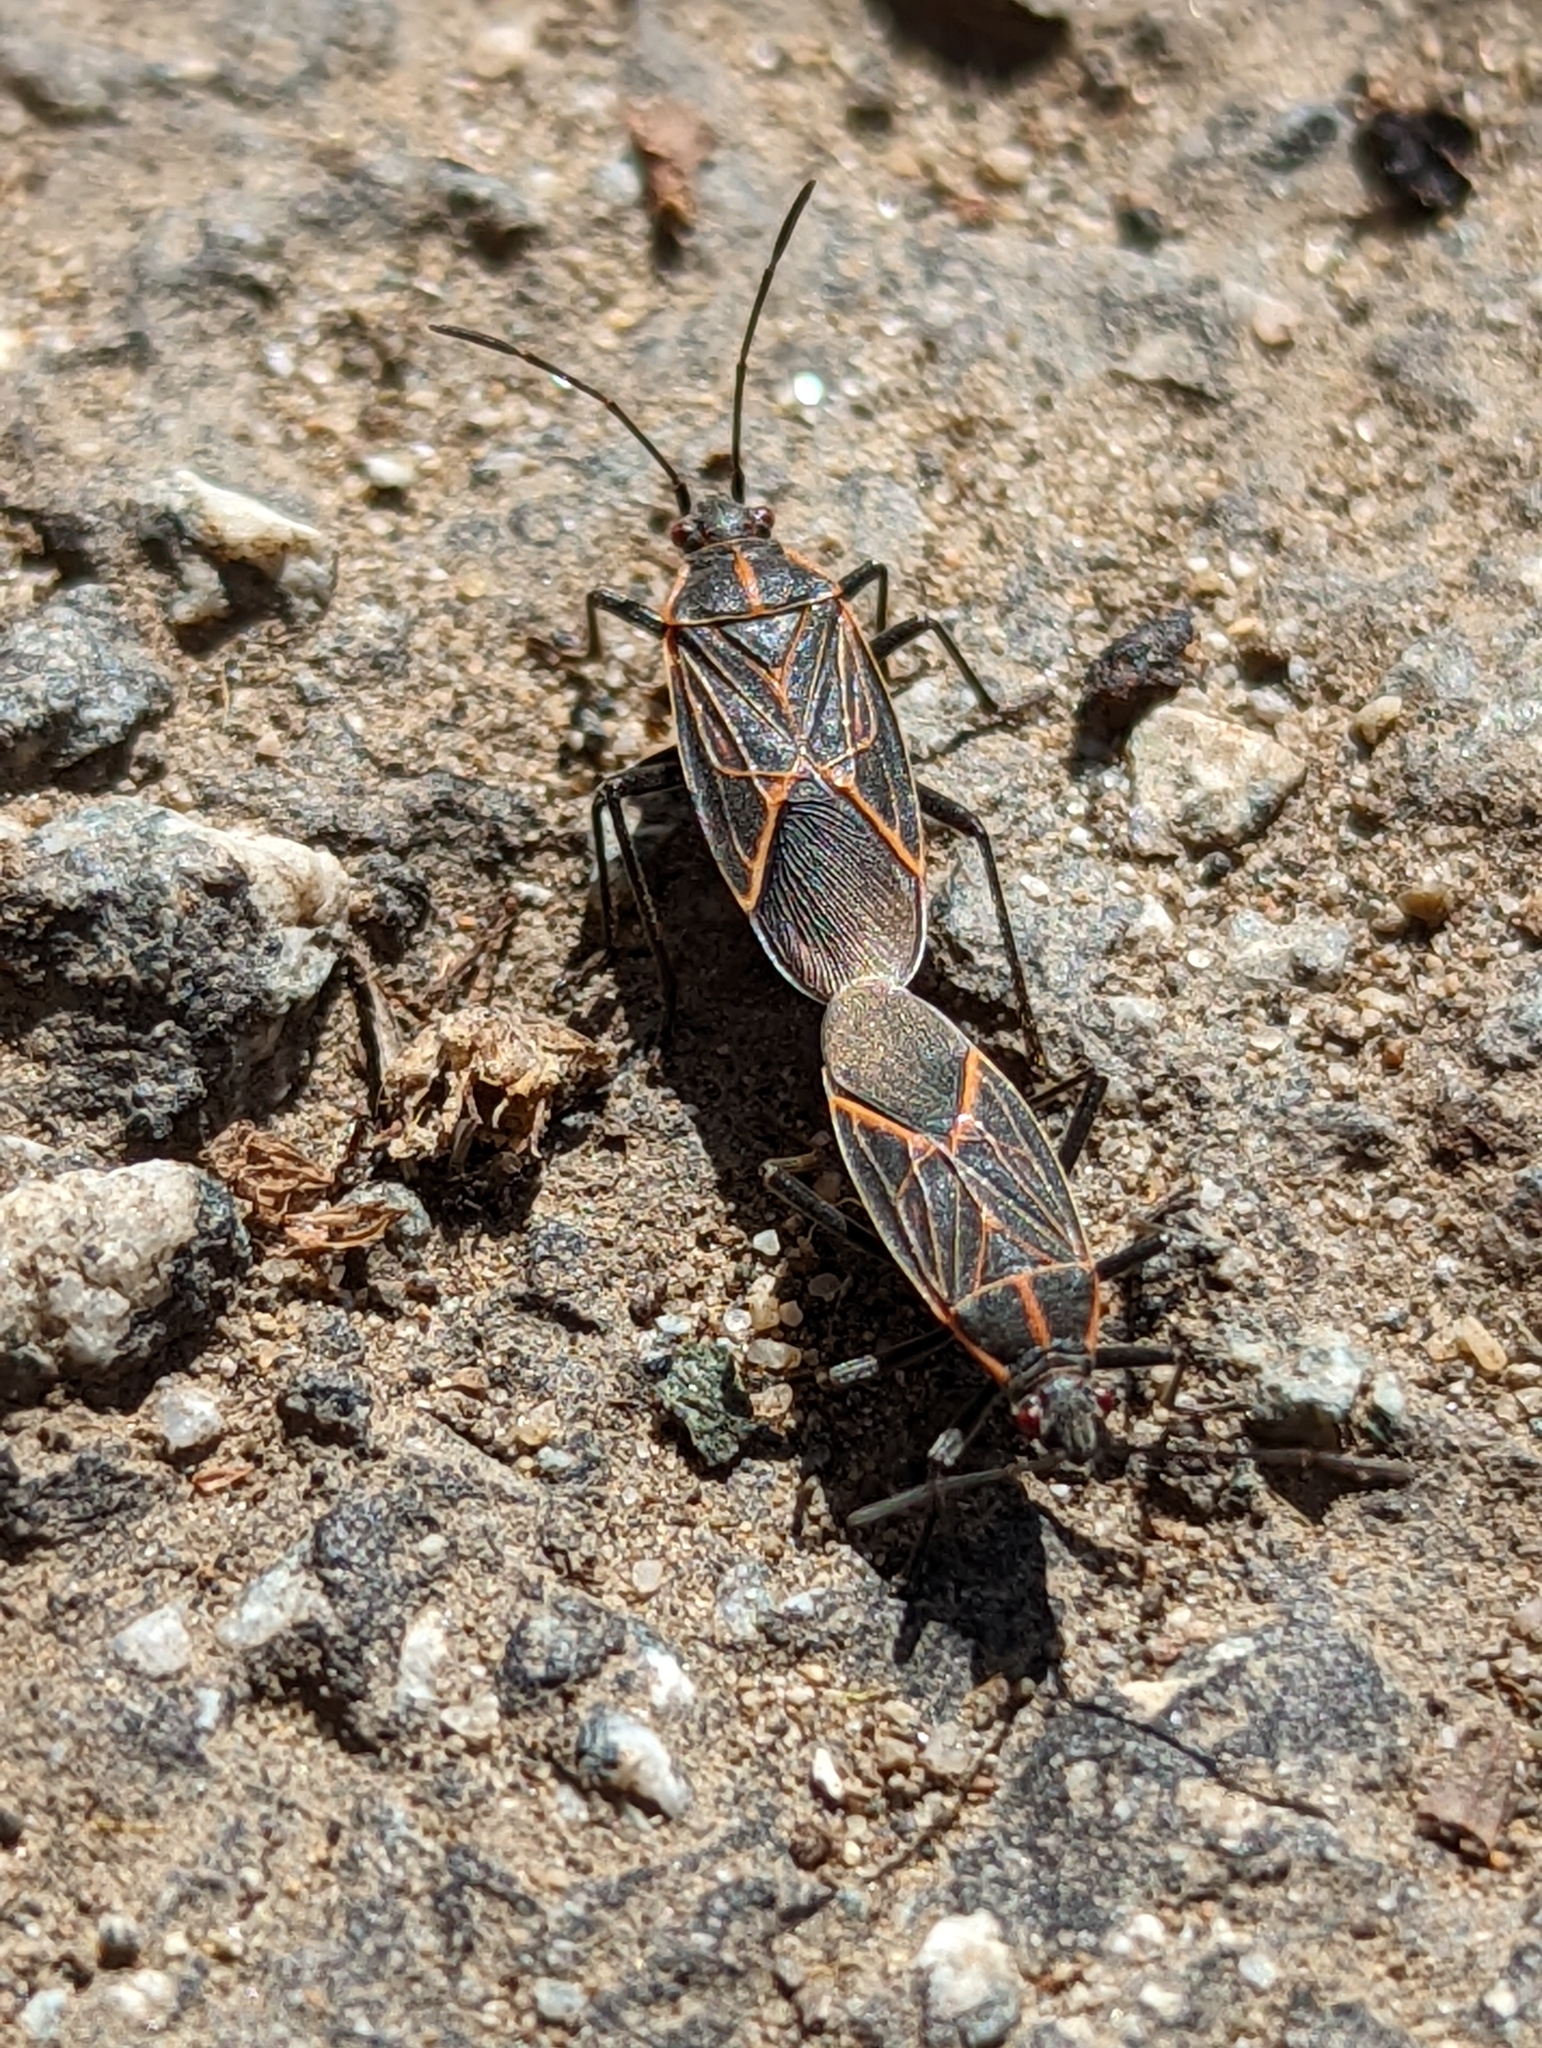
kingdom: Animalia
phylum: Arthropoda
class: Insecta
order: Hemiptera
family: Rhopalidae
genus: Boisea
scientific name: Boisea rubrolineata
